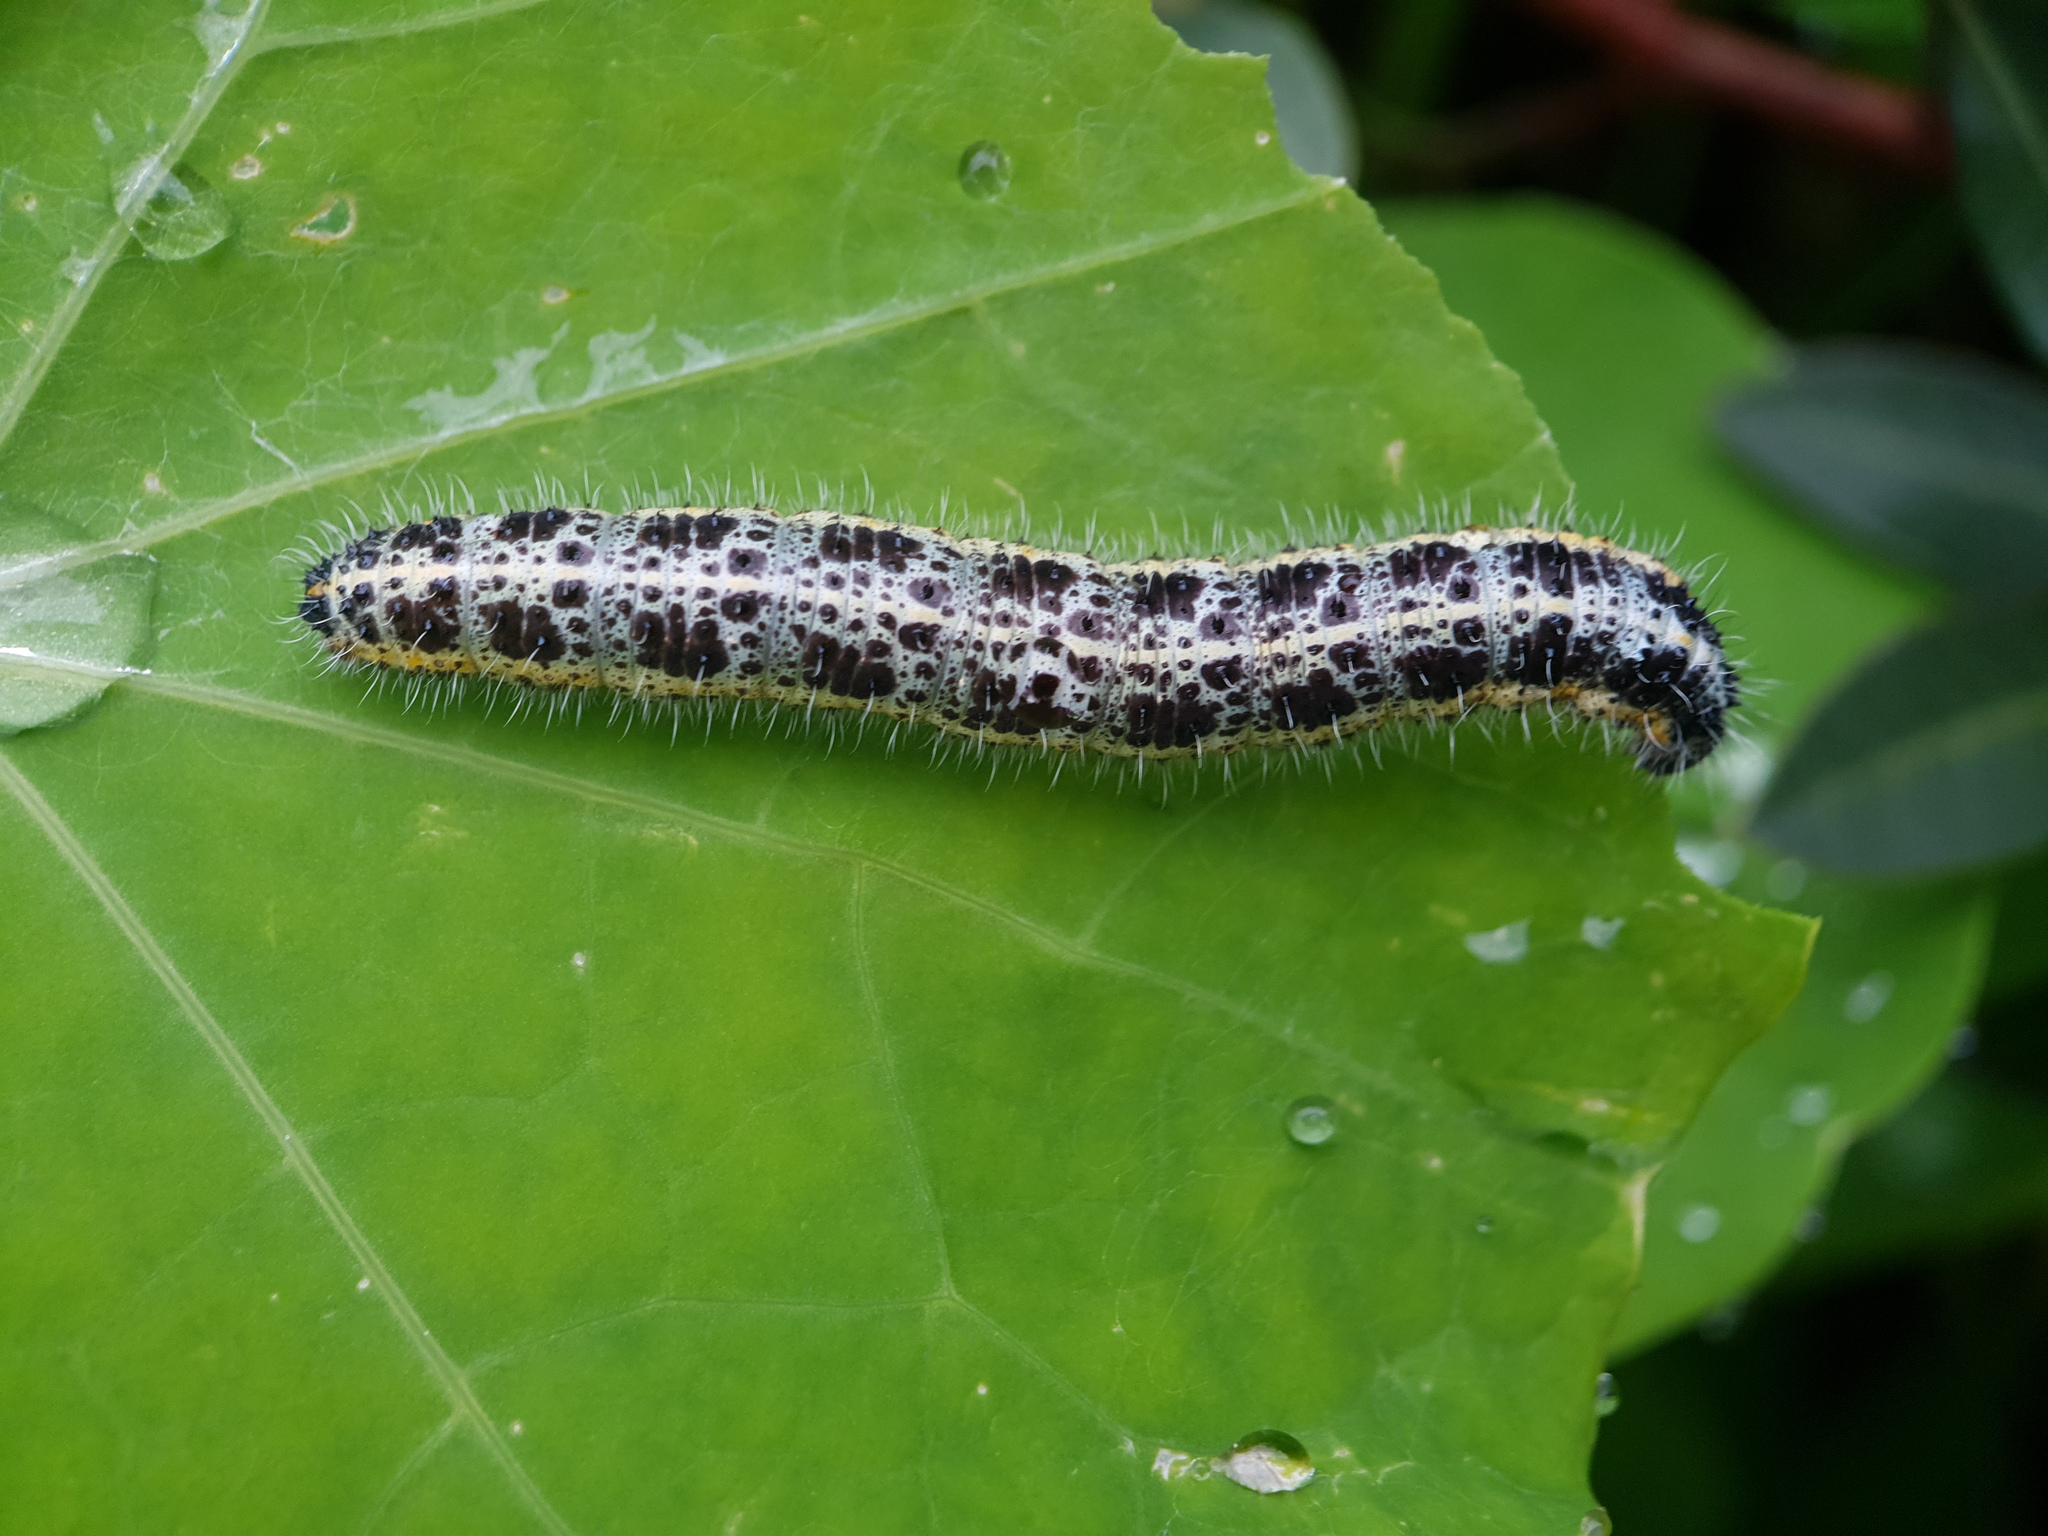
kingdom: Animalia
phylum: Arthropoda
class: Insecta
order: Lepidoptera
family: Pieridae
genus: Pieris
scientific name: Pieris brassicae
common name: Large white
